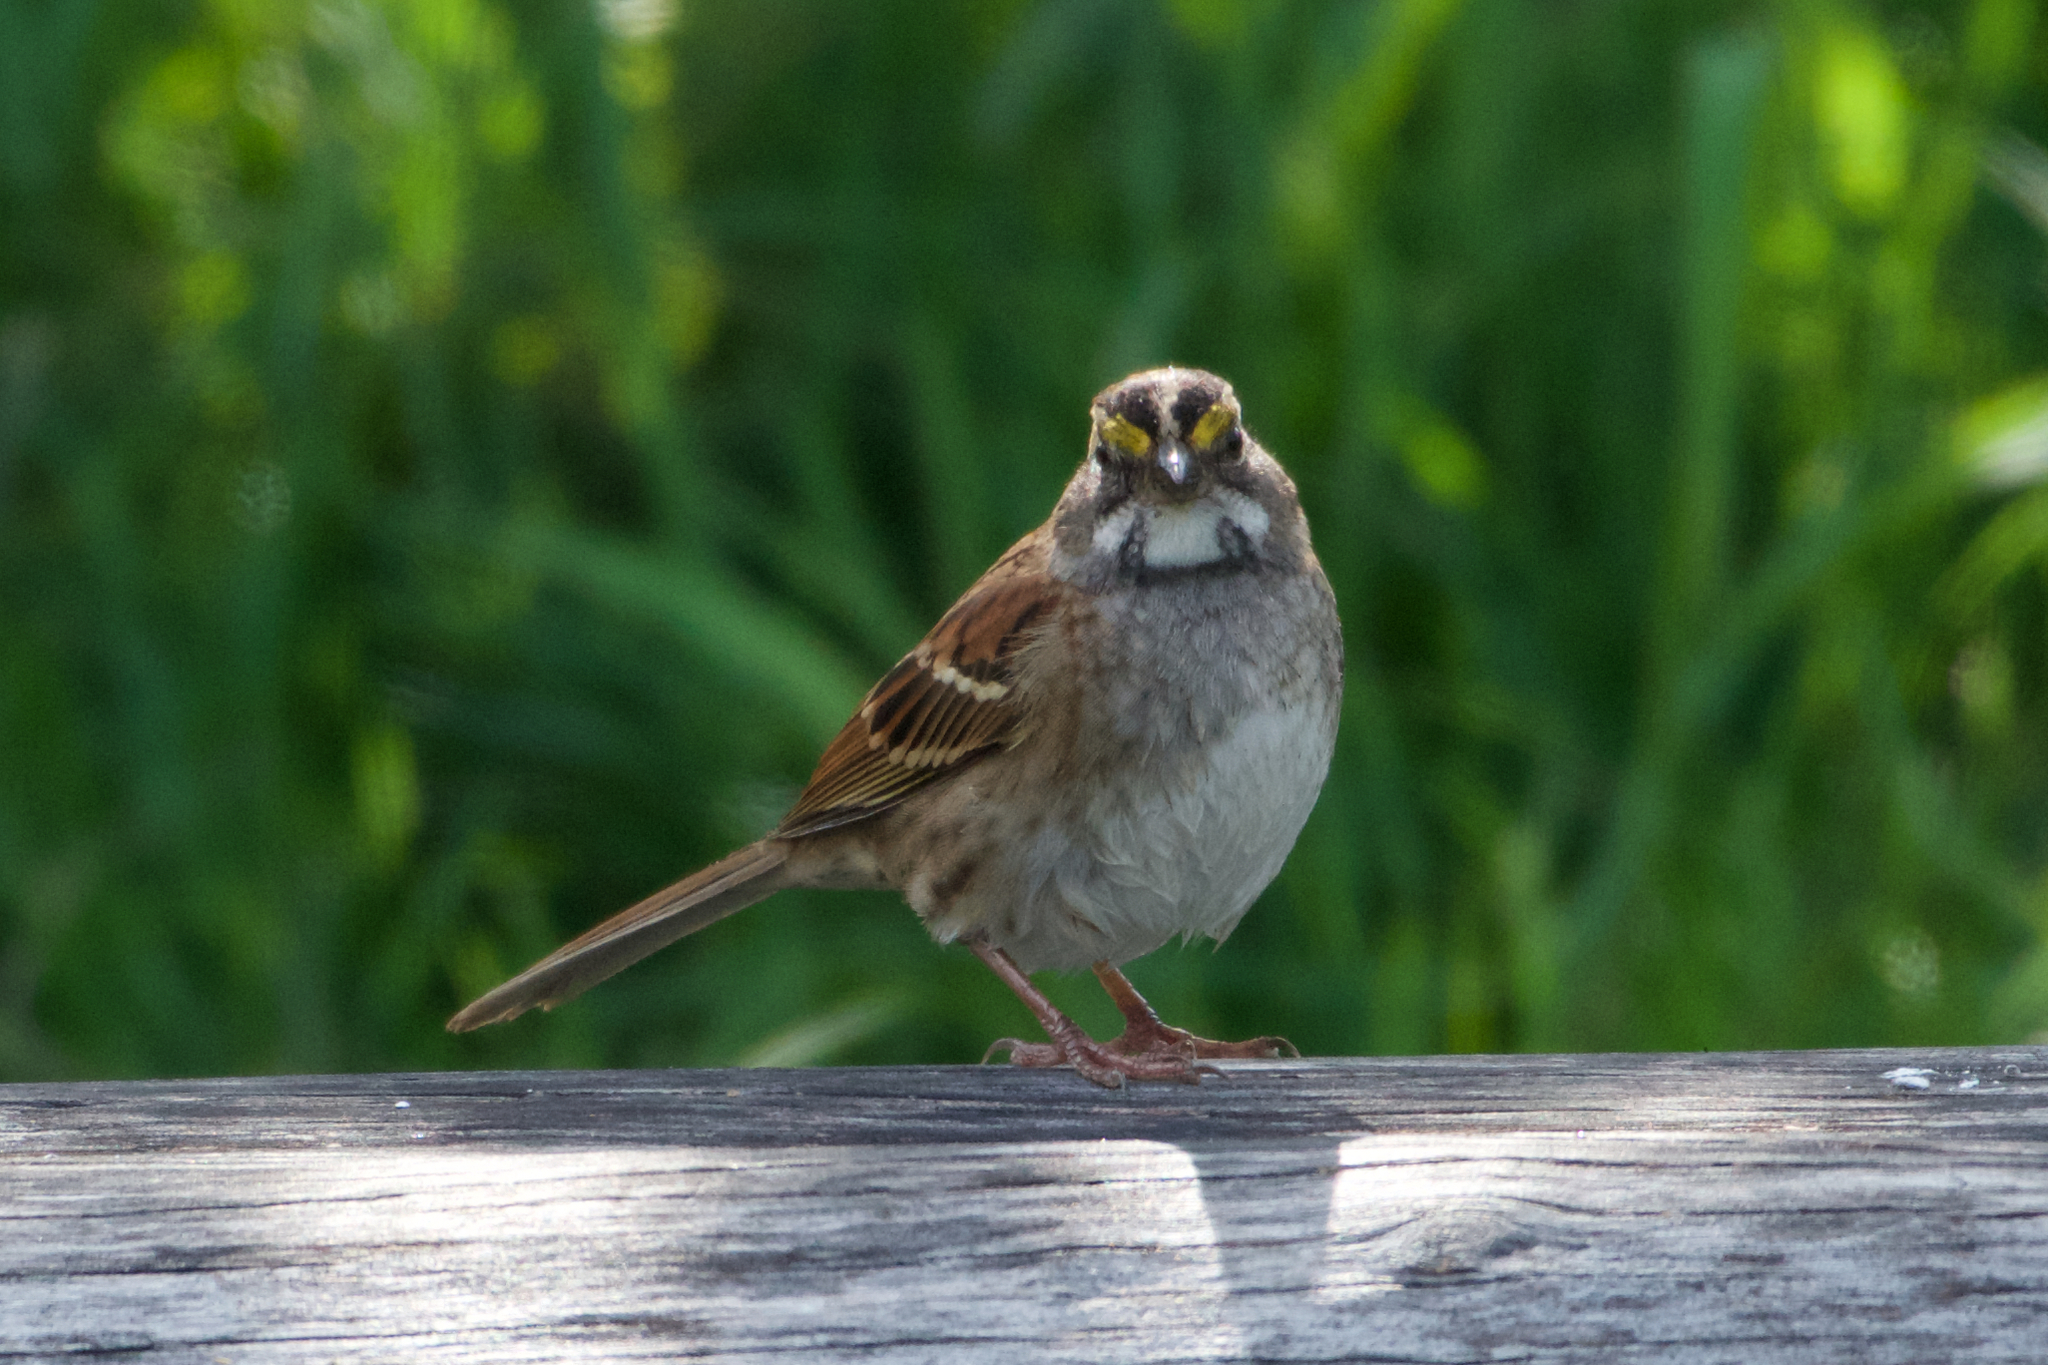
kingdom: Animalia
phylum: Chordata
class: Aves
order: Passeriformes
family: Passerellidae
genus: Zonotrichia
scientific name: Zonotrichia albicollis
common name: White-throated sparrow
